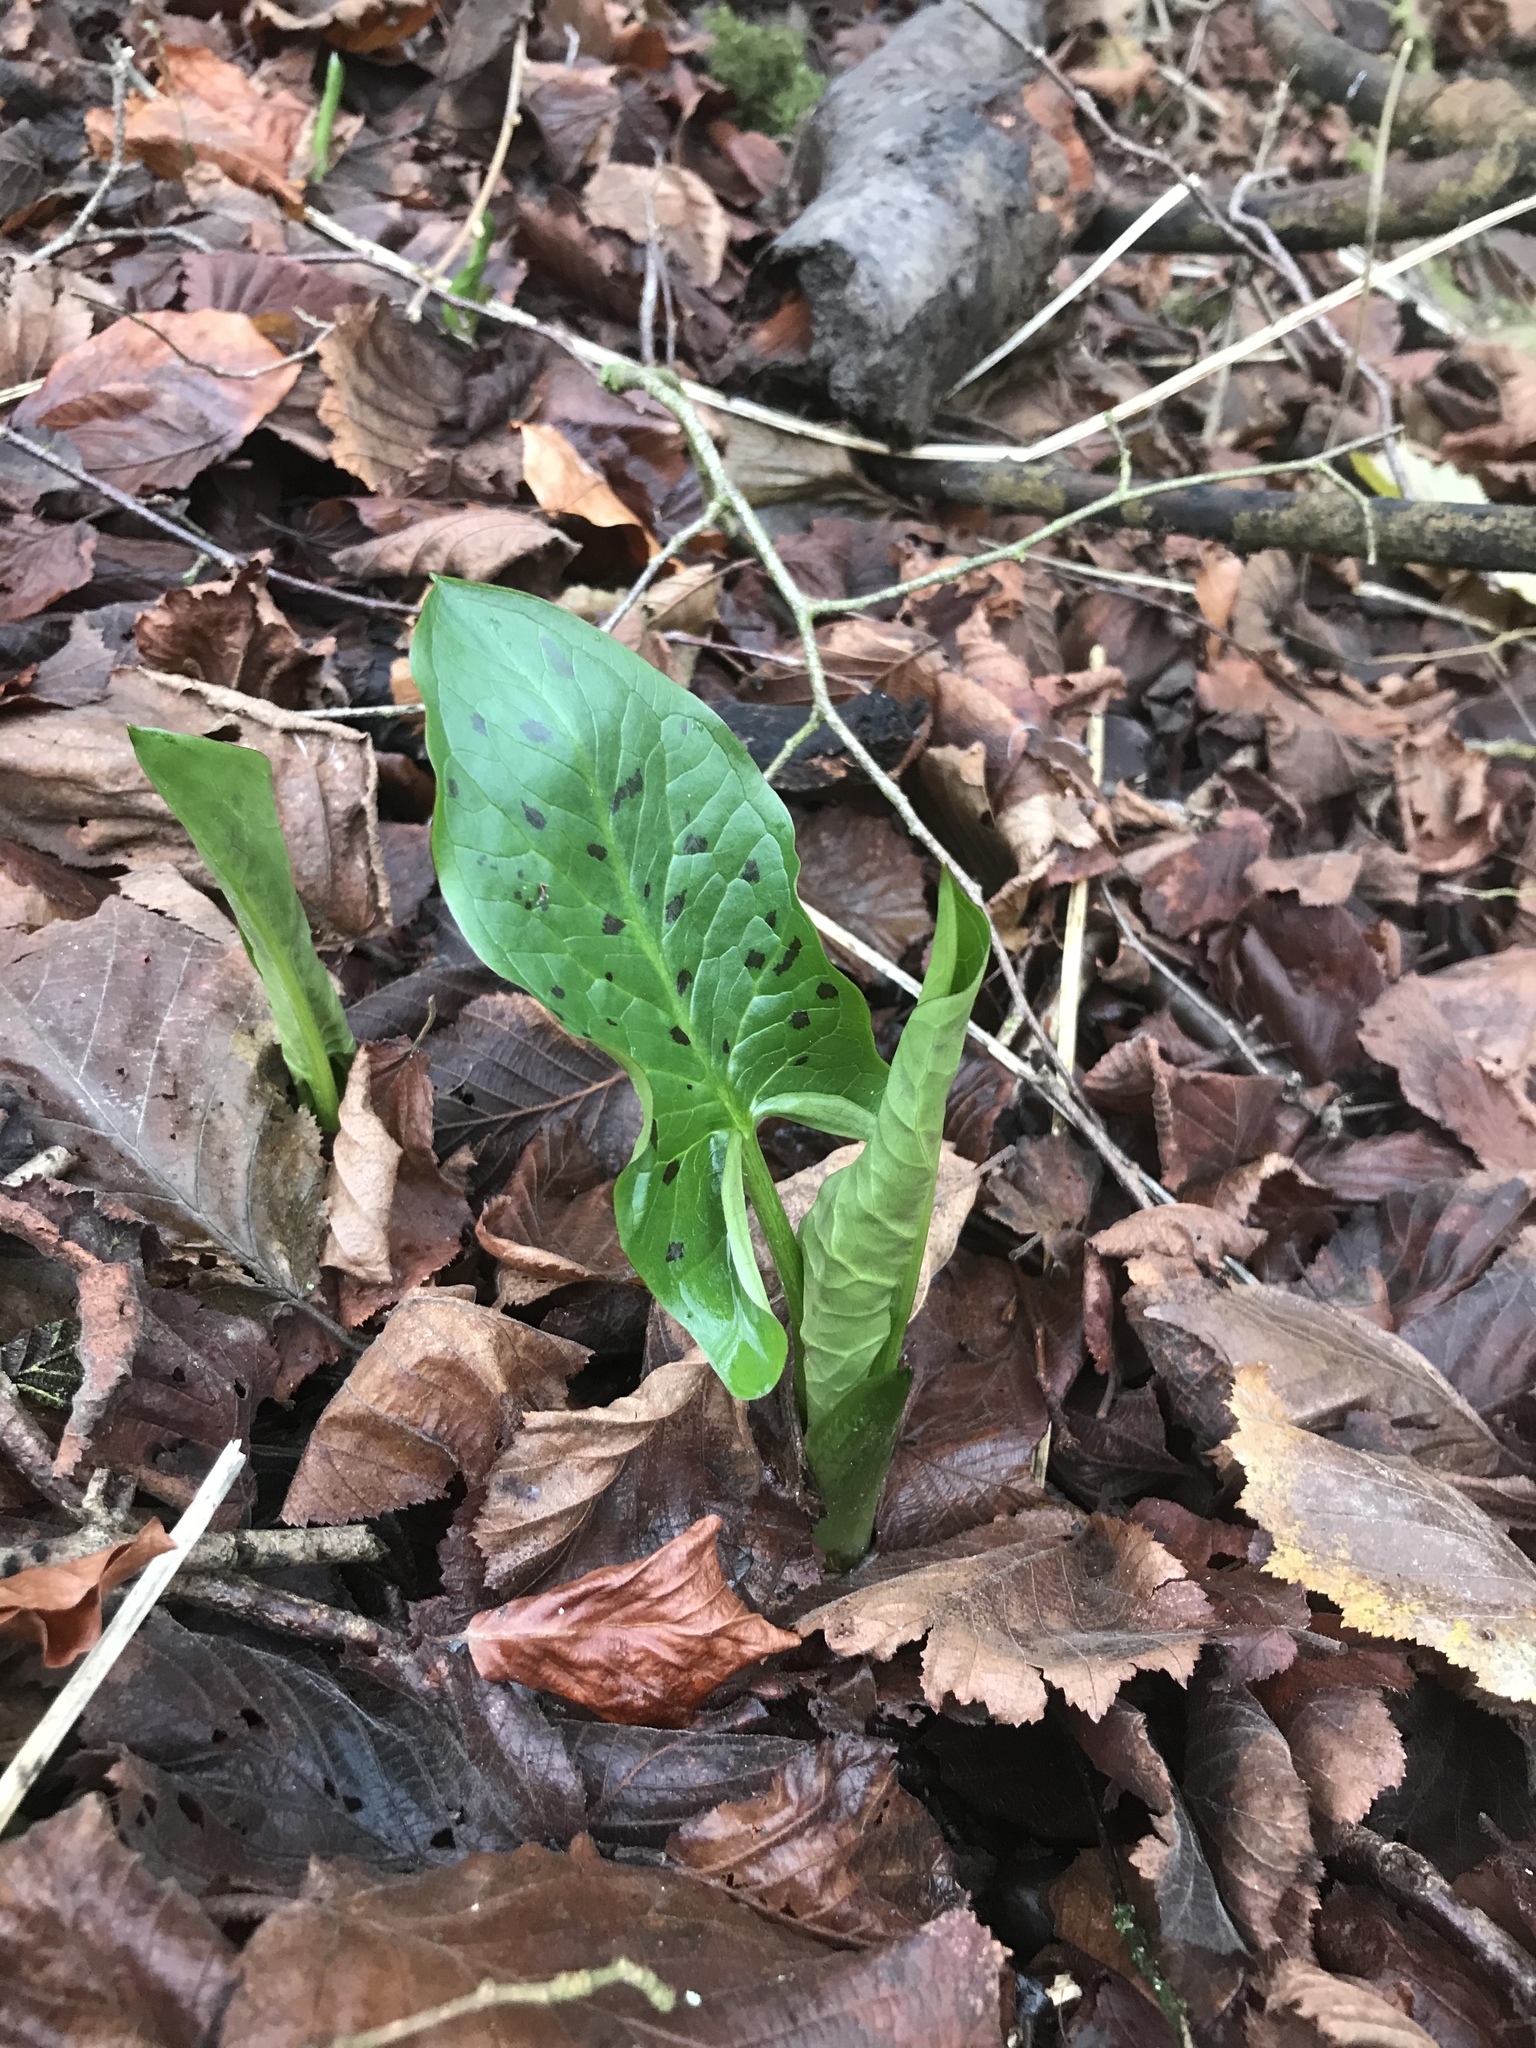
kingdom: Plantae
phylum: Tracheophyta
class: Liliopsida
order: Alismatales
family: Araceae
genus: Arum
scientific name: Arum maculatum
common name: Lords-and-ladies
